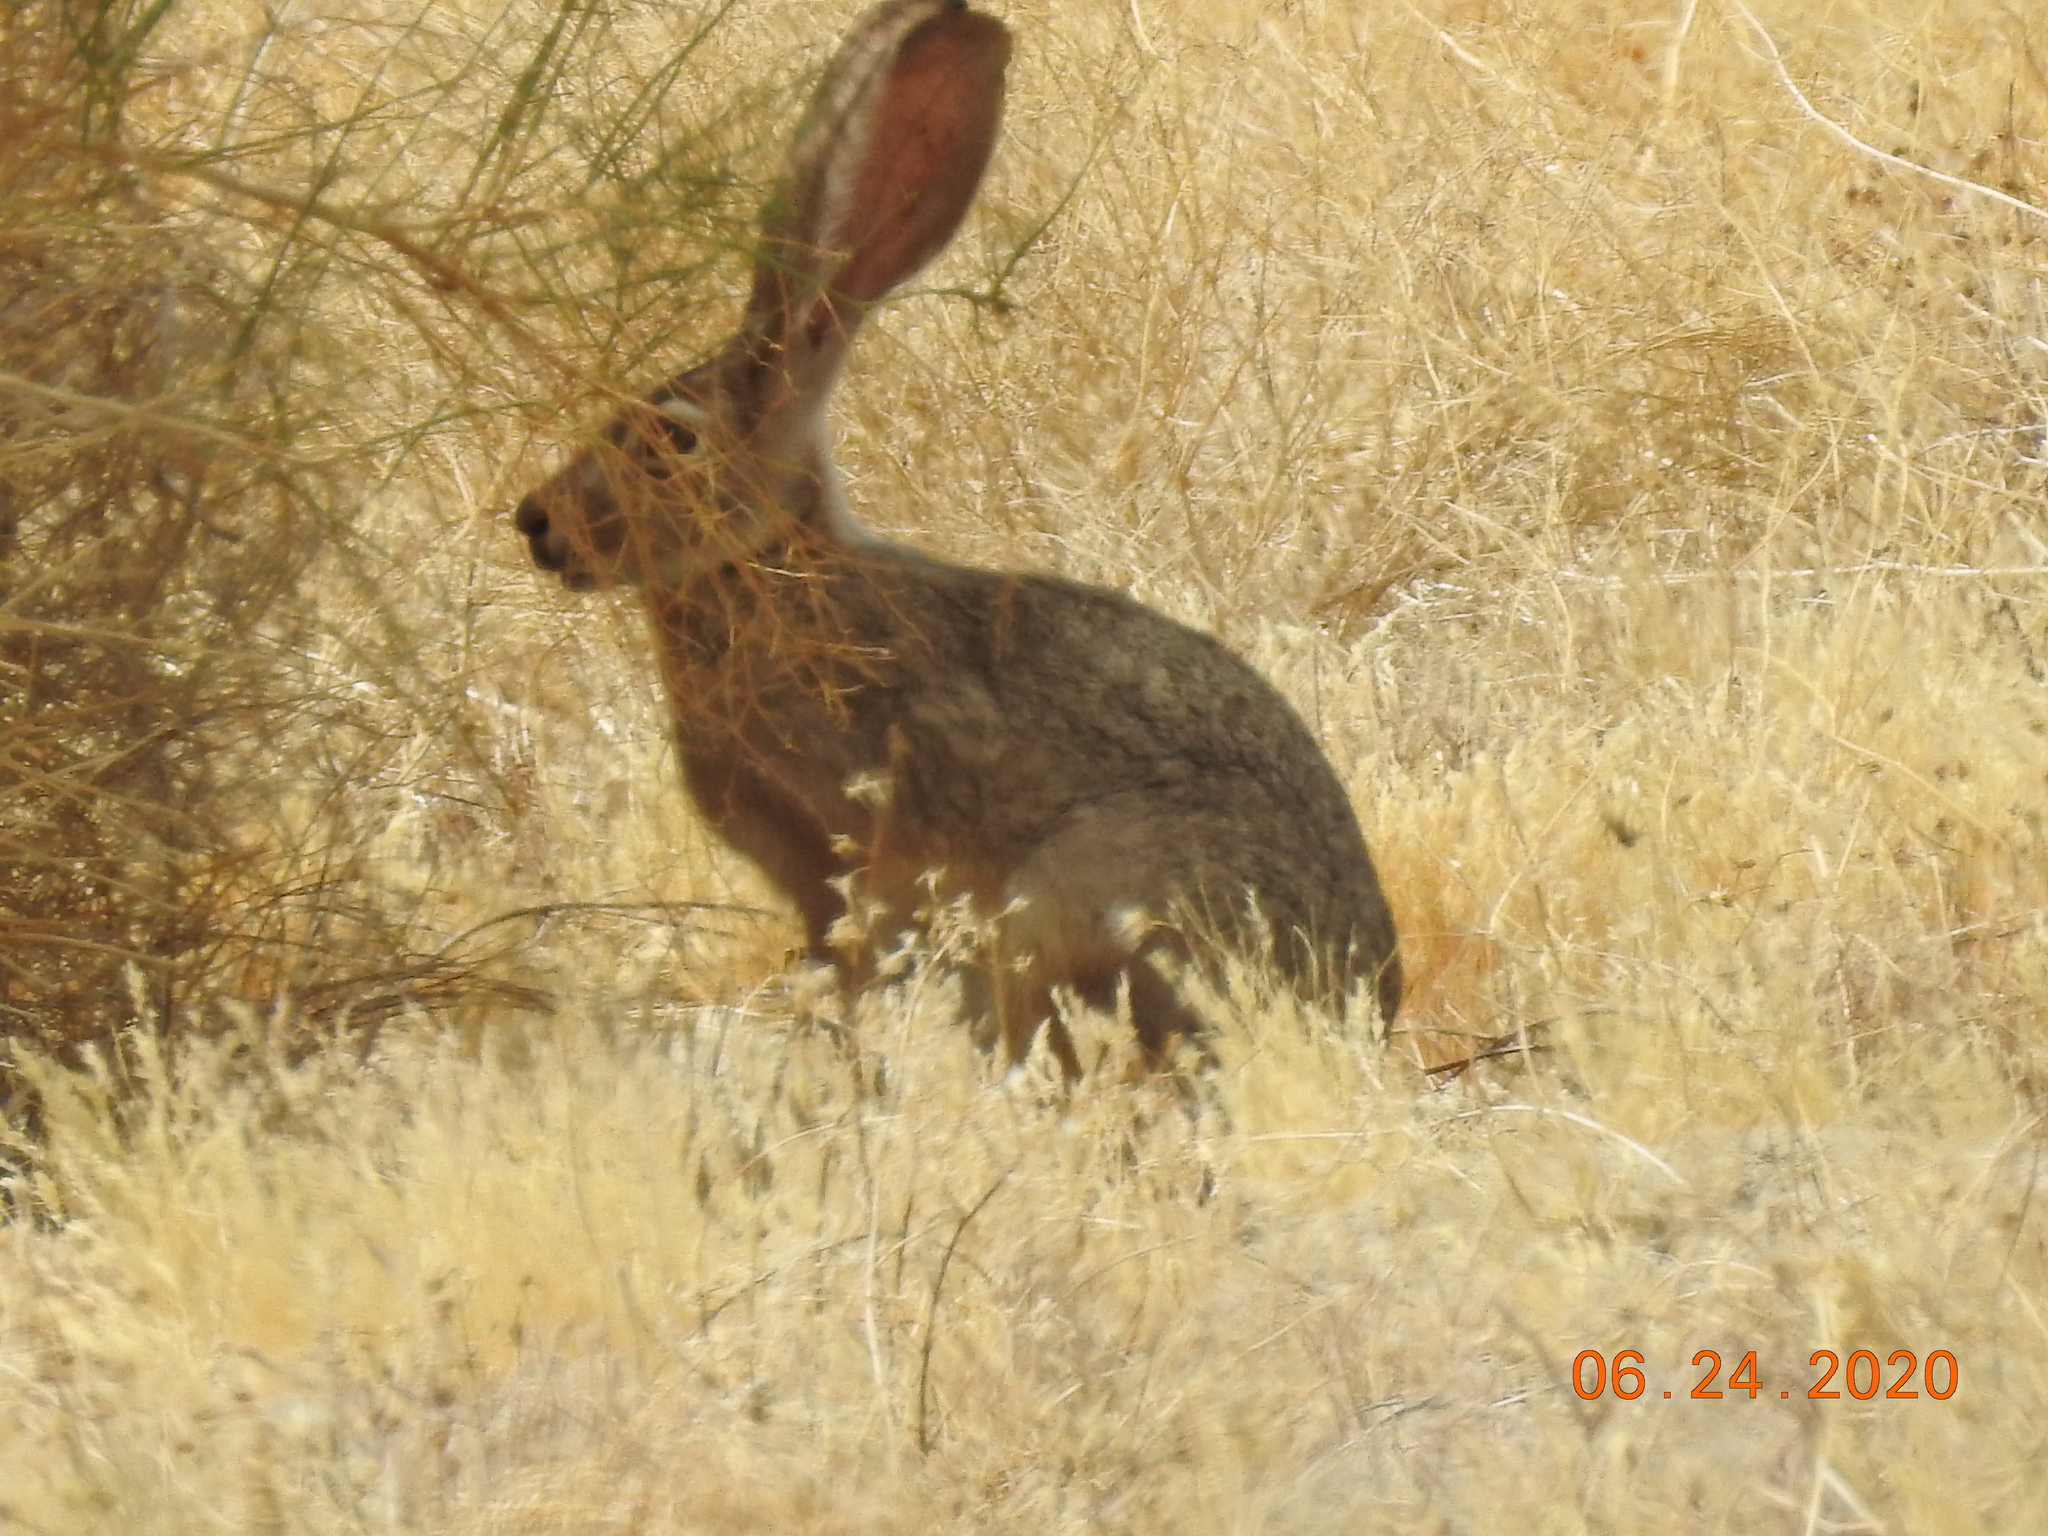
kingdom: Animalia
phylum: Chordata
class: Mammalia
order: Lagomorpha
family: Leporidae
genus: Lepus
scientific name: Lepus californicus
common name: Black-tailed jackrabbit
